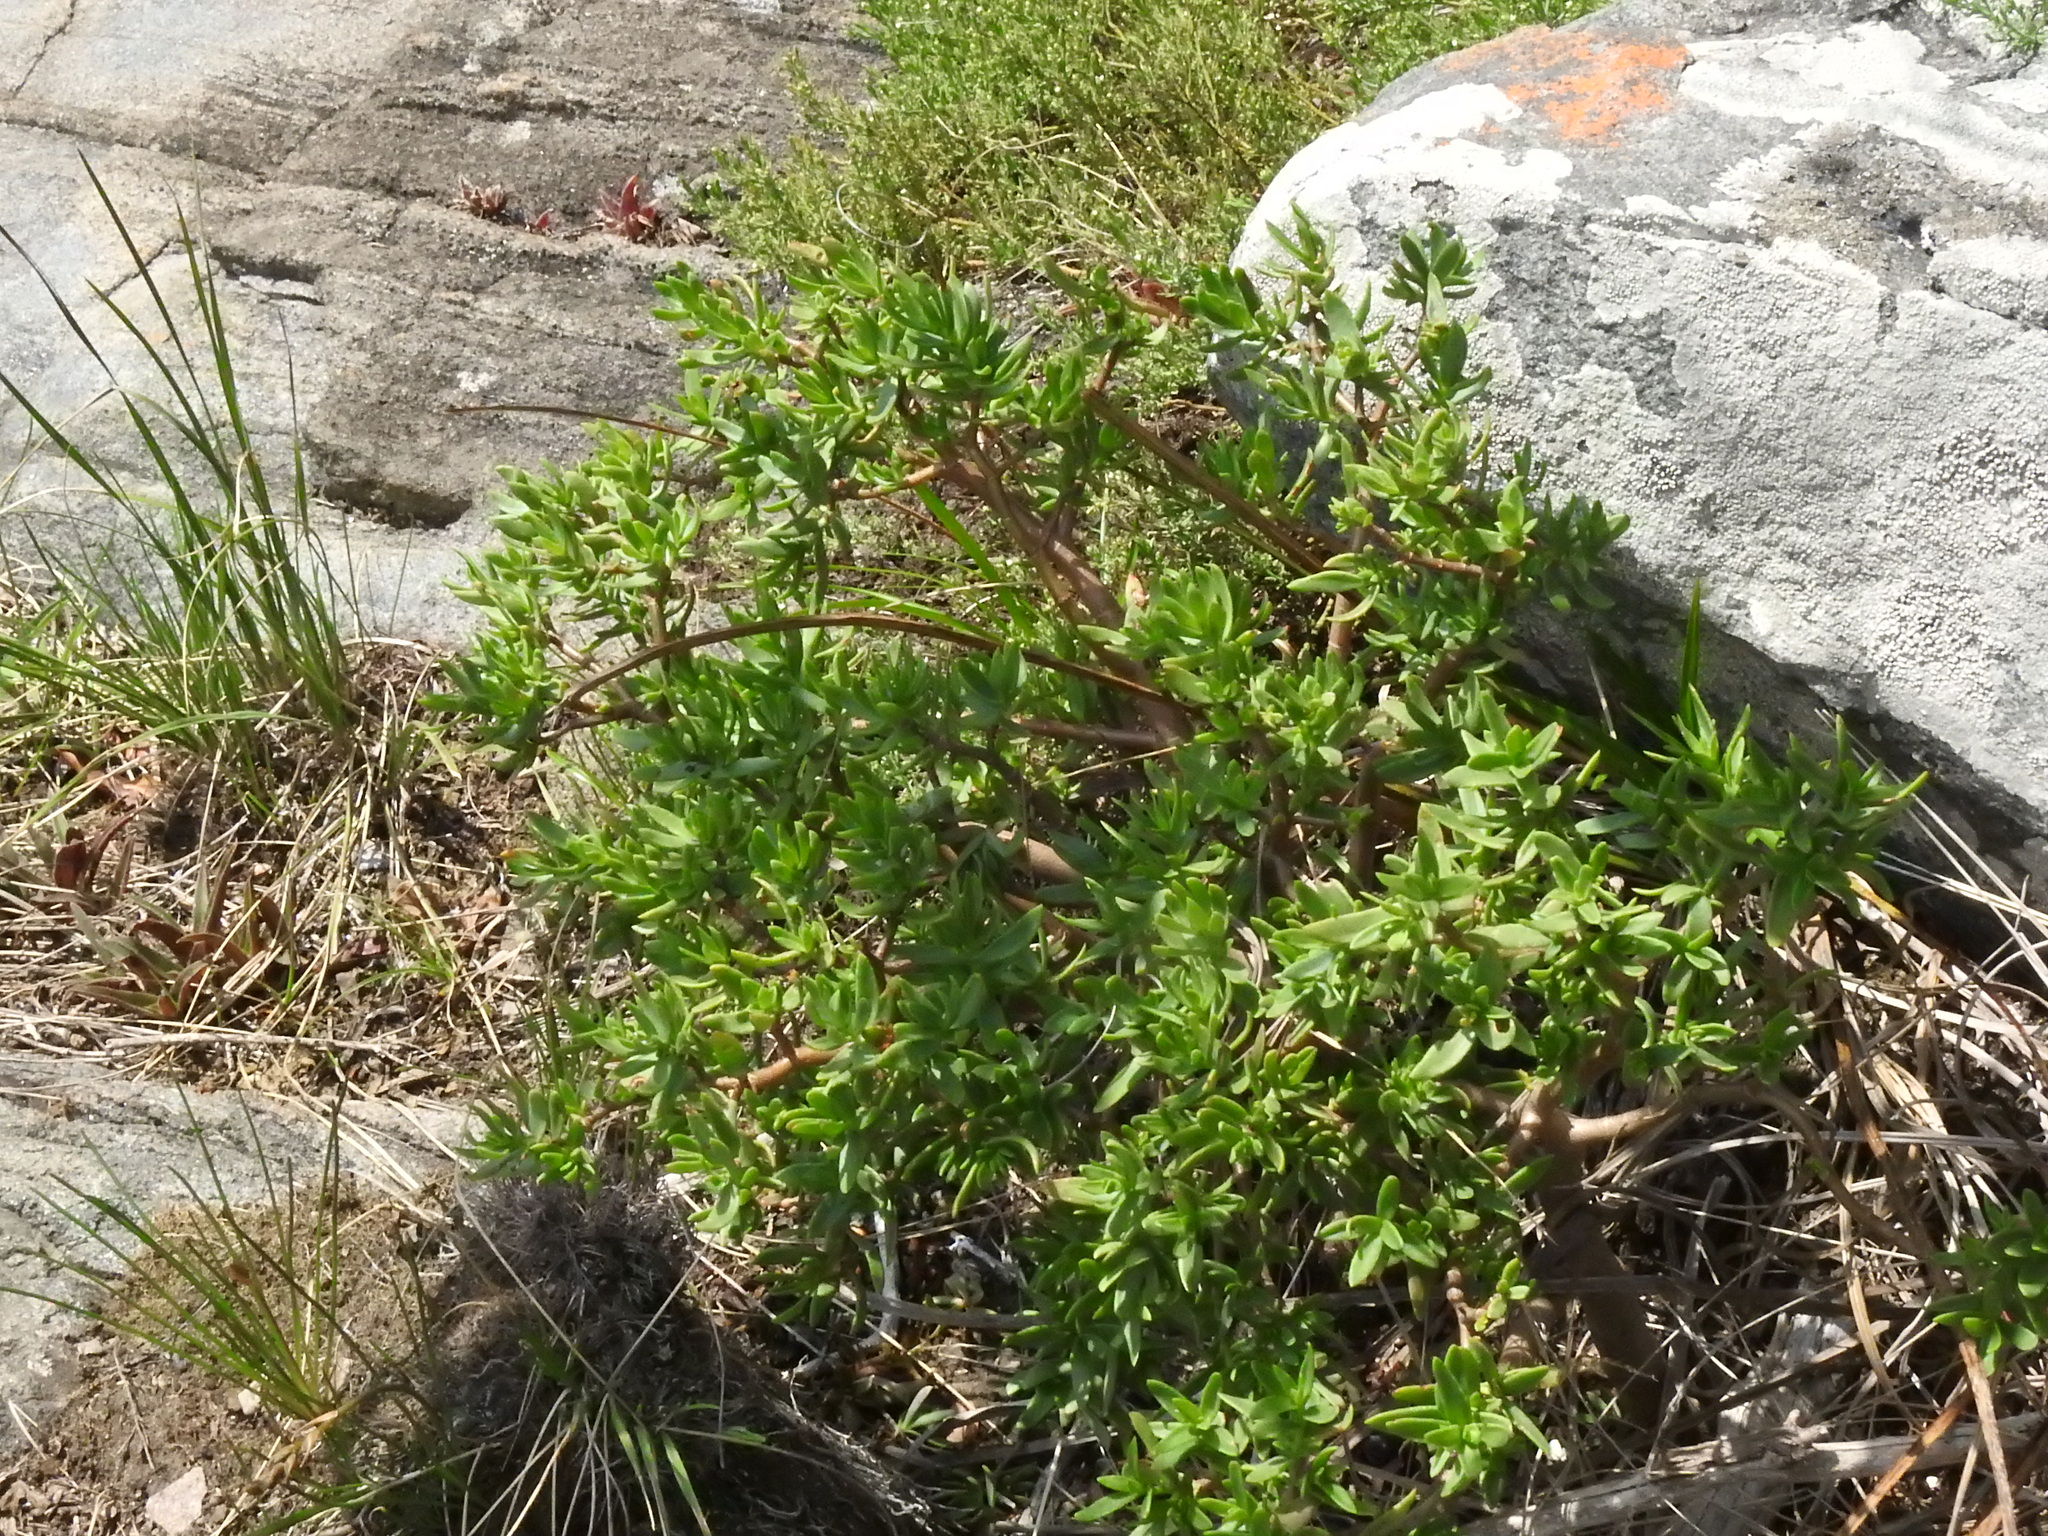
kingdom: Plantae
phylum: Tracheophyta
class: Magnoliopsida
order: Saxifragales
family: Crassulaceae
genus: Crassula
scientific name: Crassula sarcocaulis
